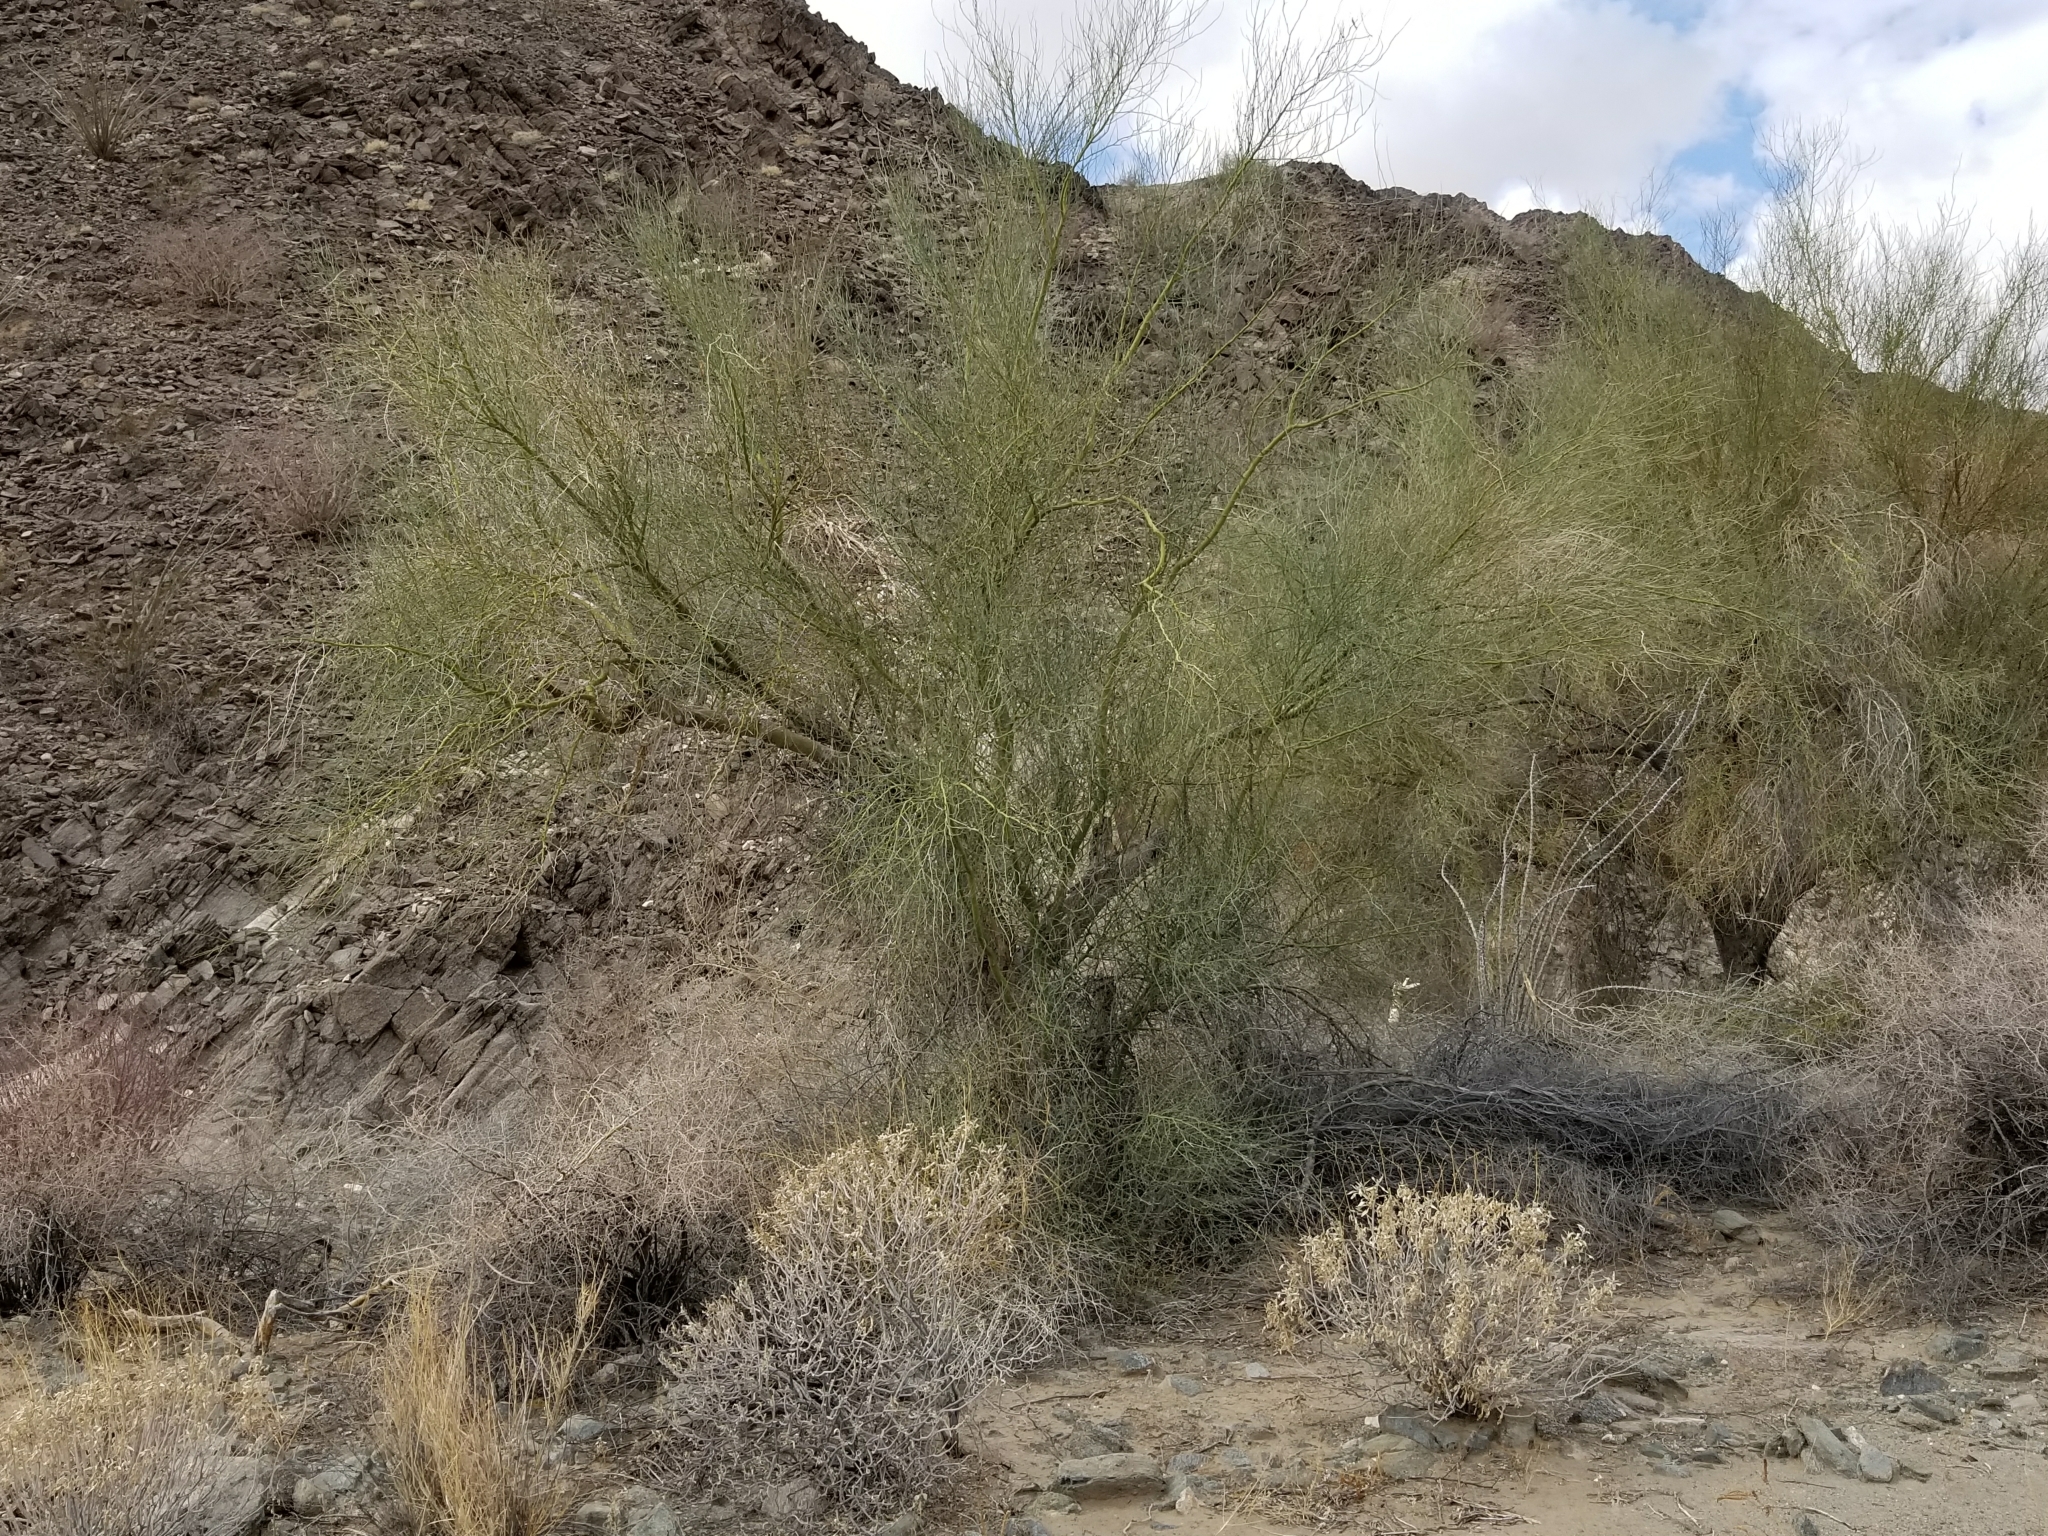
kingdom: Plantae
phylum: Tracheophyta
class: Magnoliopsida
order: Fabales
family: Fabaceae
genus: Parkinsonia
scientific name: Parkinsonia florida
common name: Blue paloverde
